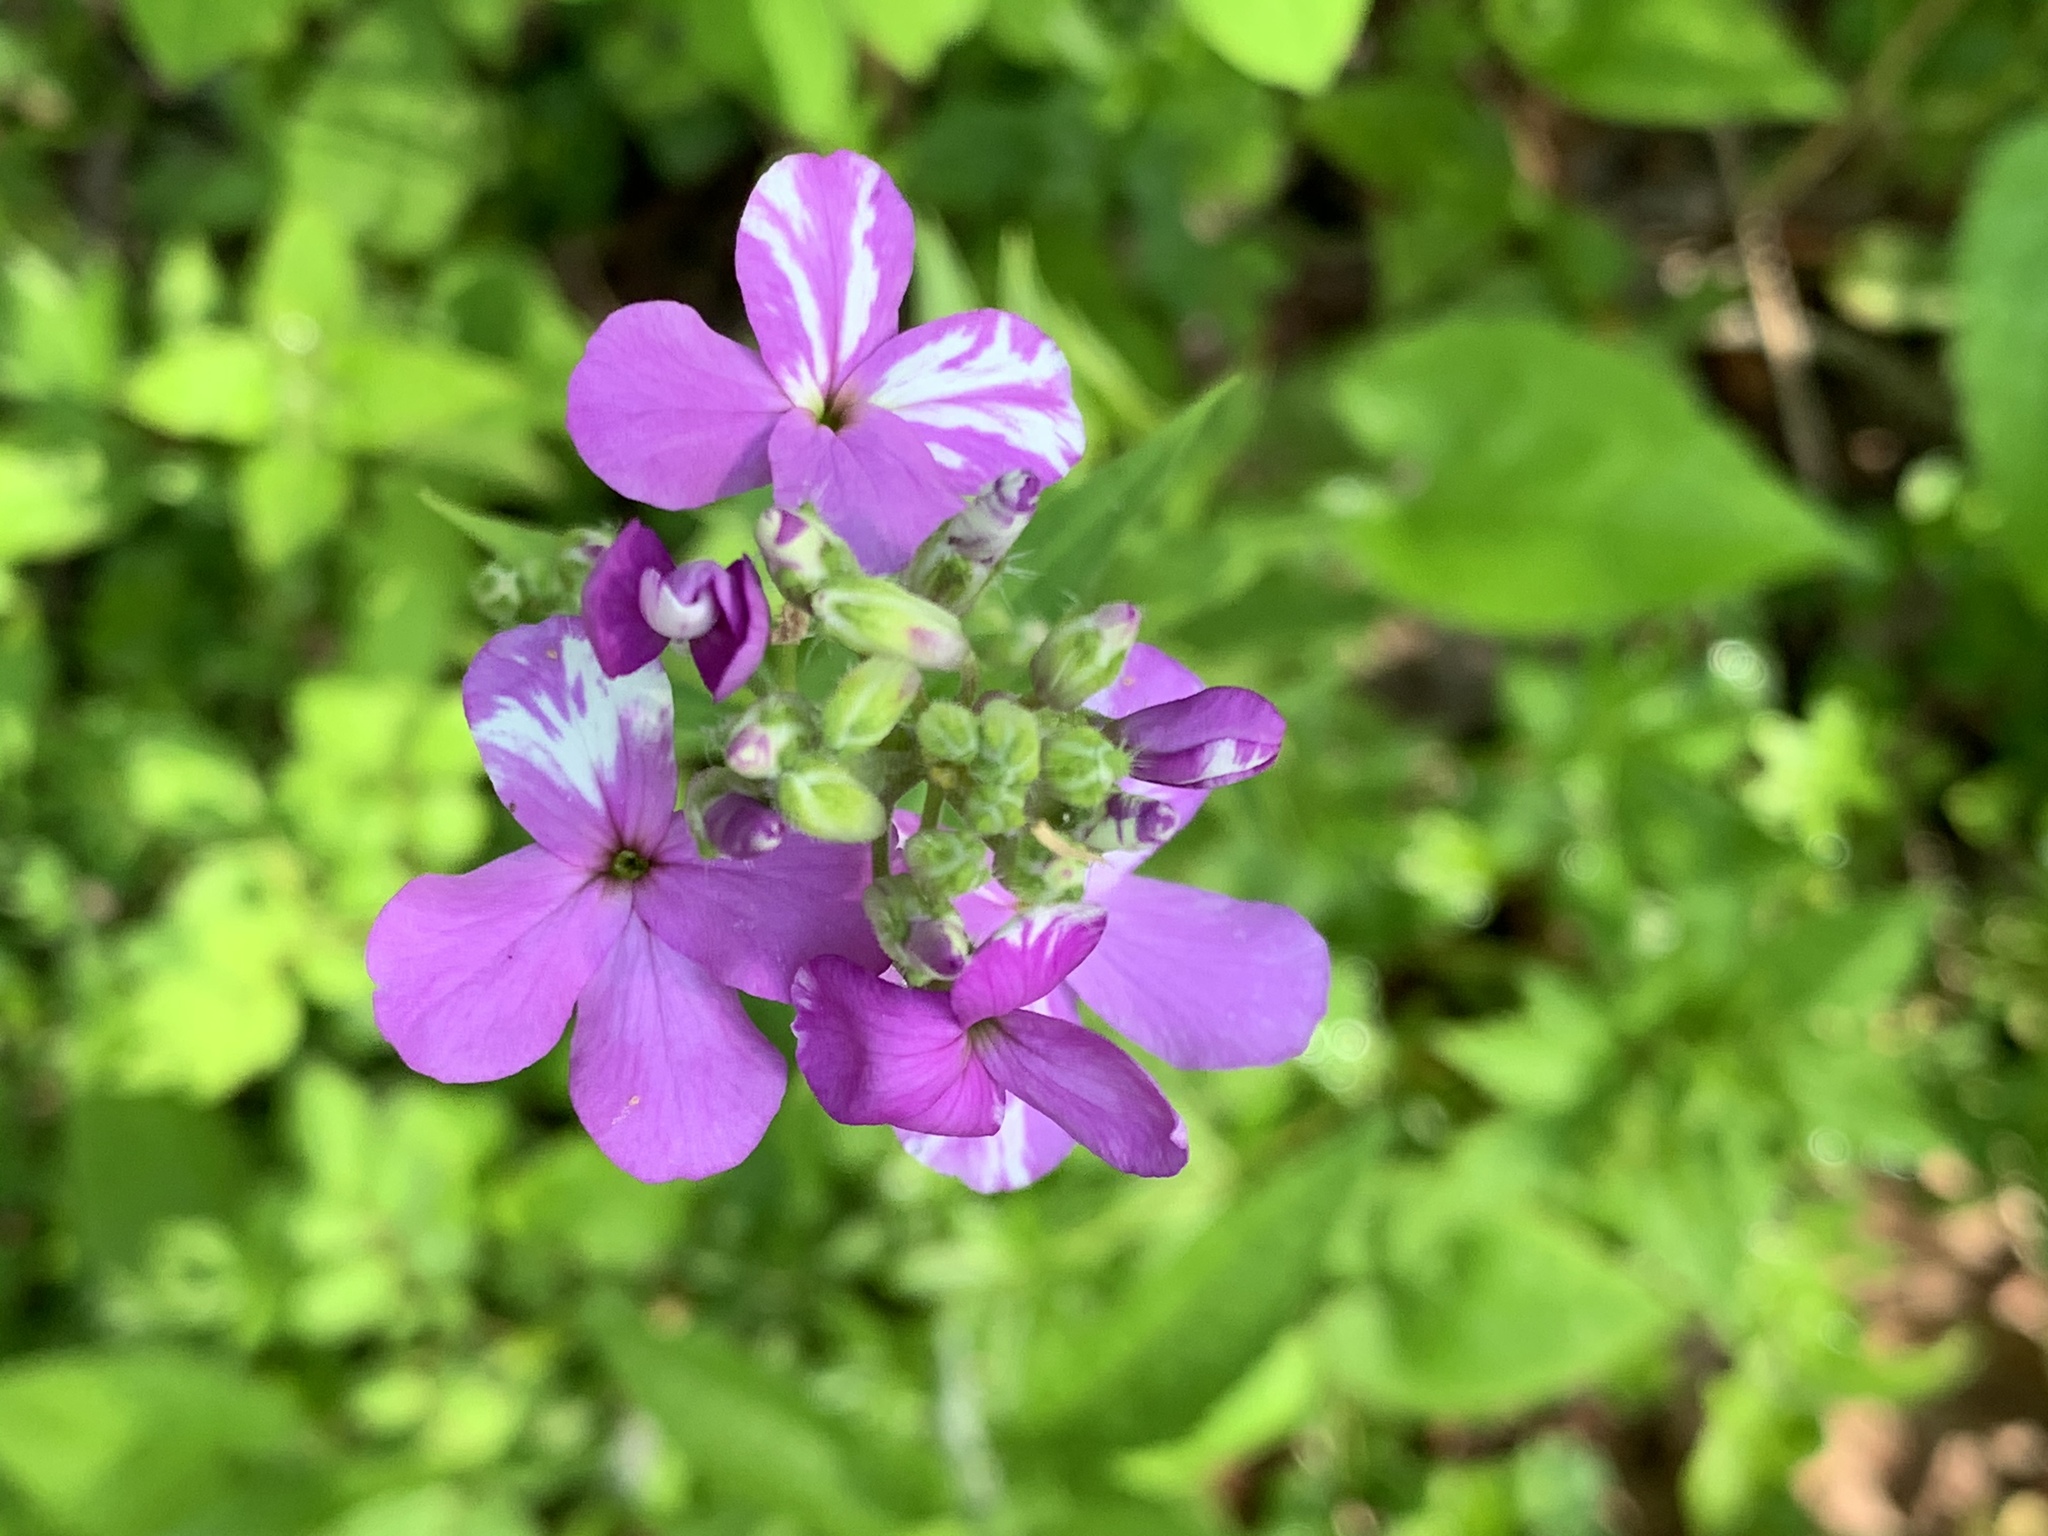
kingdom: Plantae
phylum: Tracheophyta
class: Magnoliopsida
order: Brassicales
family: Brassicaceae
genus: Hesperis
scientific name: Hesperis matronalis
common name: Dame's-violet
